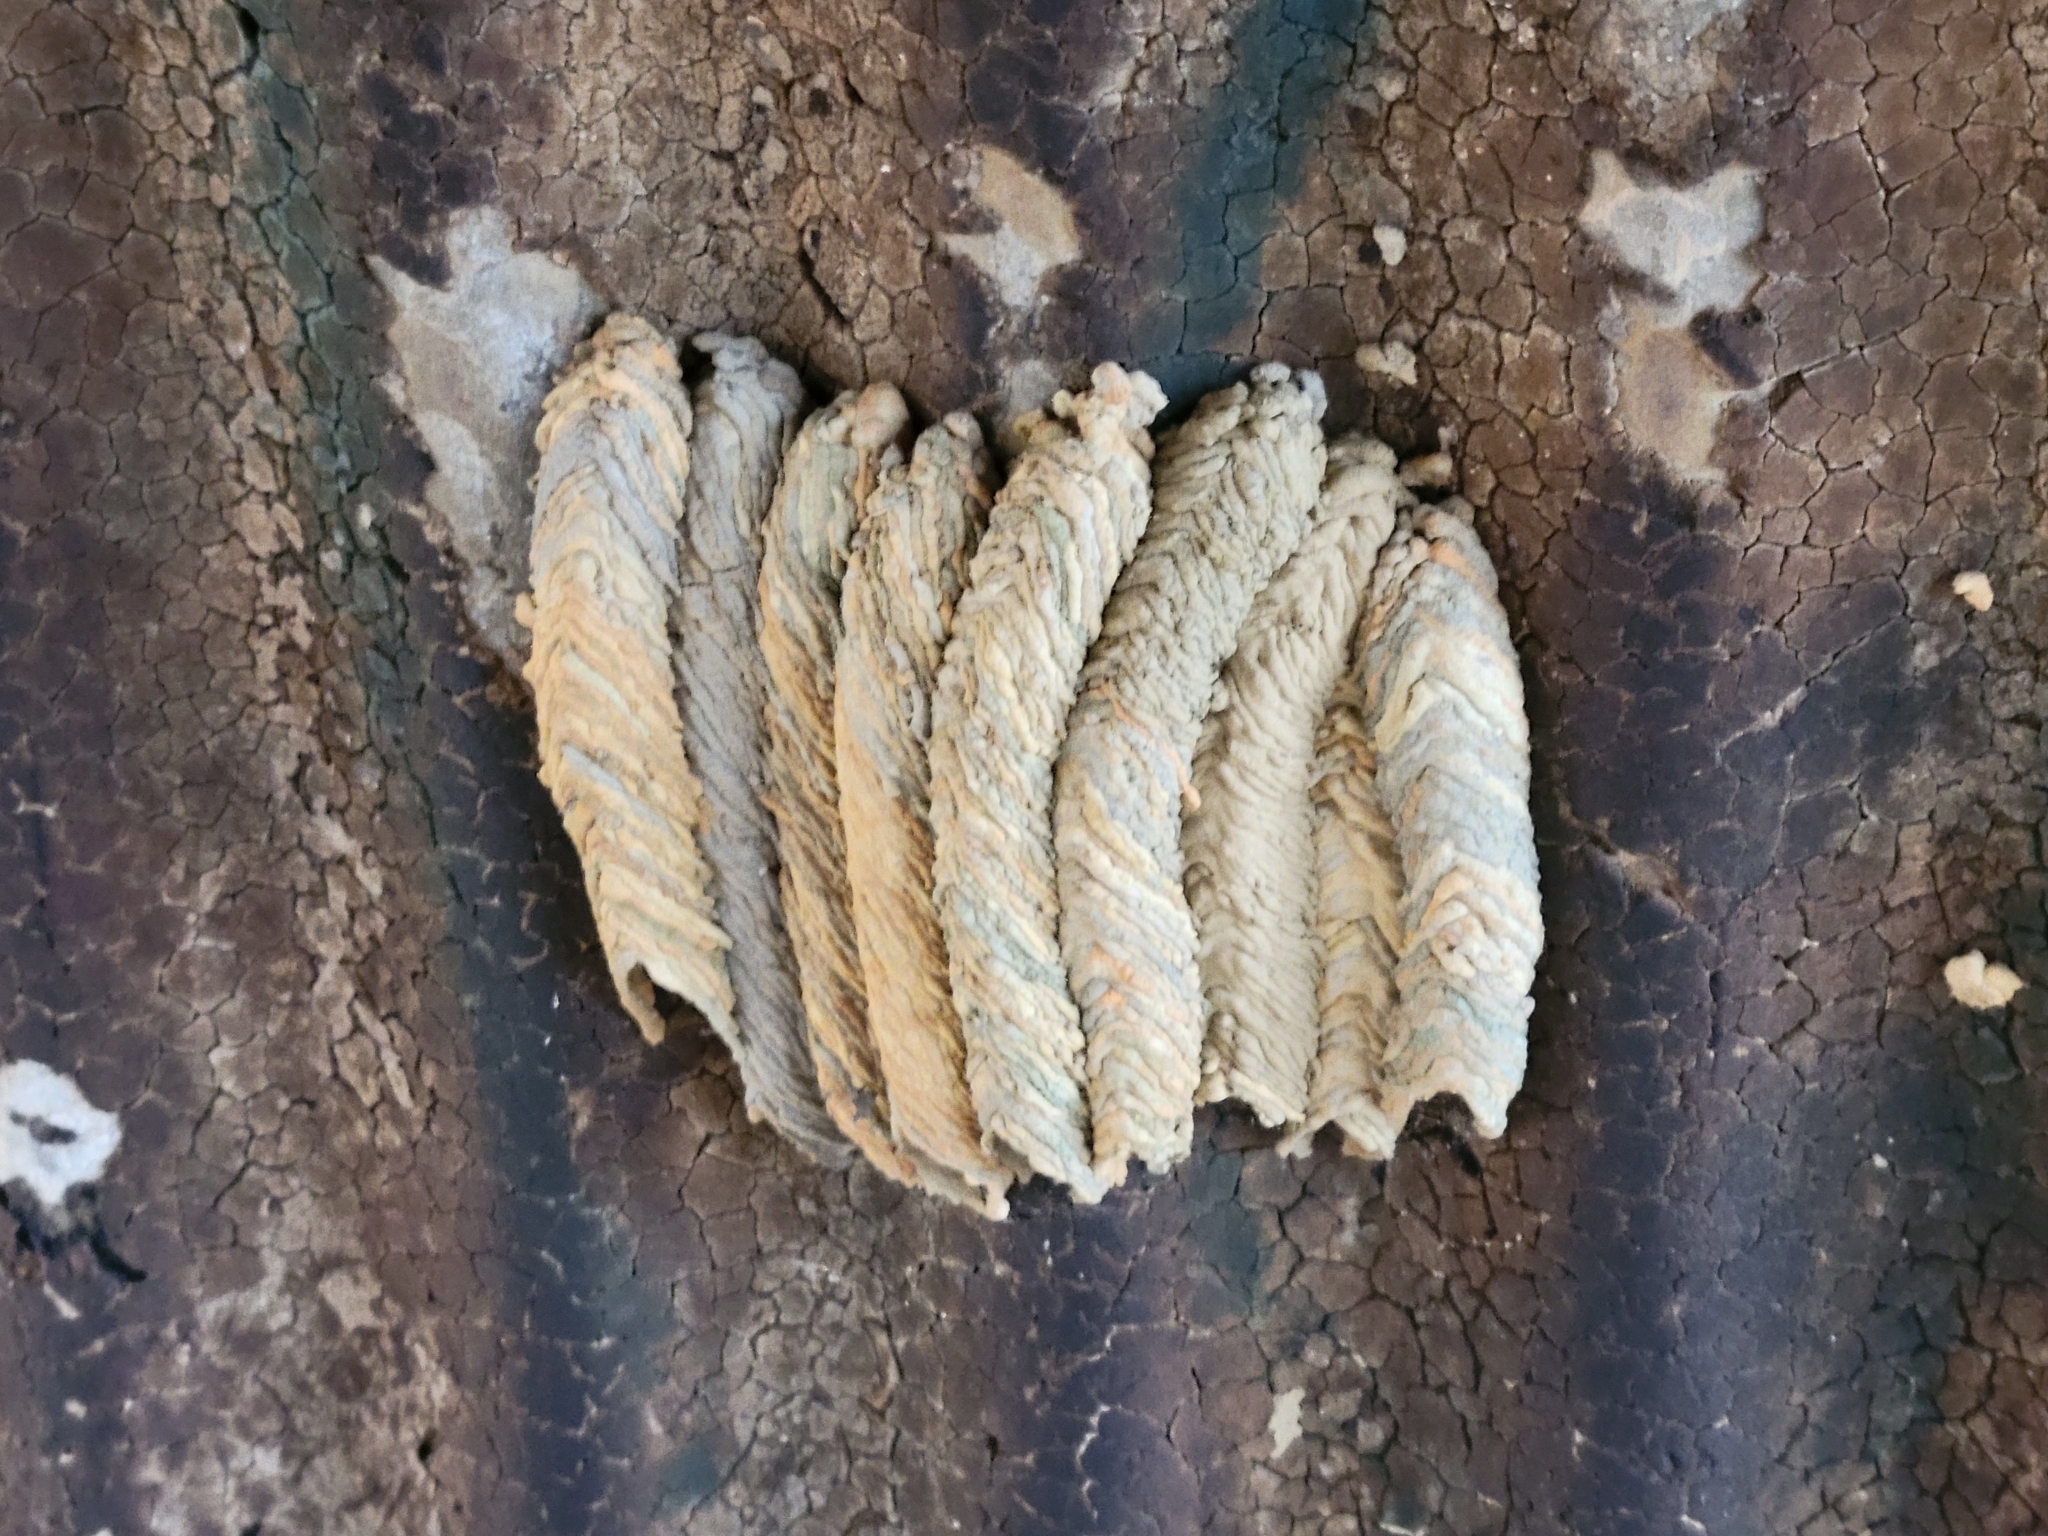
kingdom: Animalia
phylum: Arthropoda
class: Insecta
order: Hymenoptera
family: Crabronidae
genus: Trypoxylon
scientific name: Trypoxylon politum
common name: Organ-pipe mud-dauber wasp
